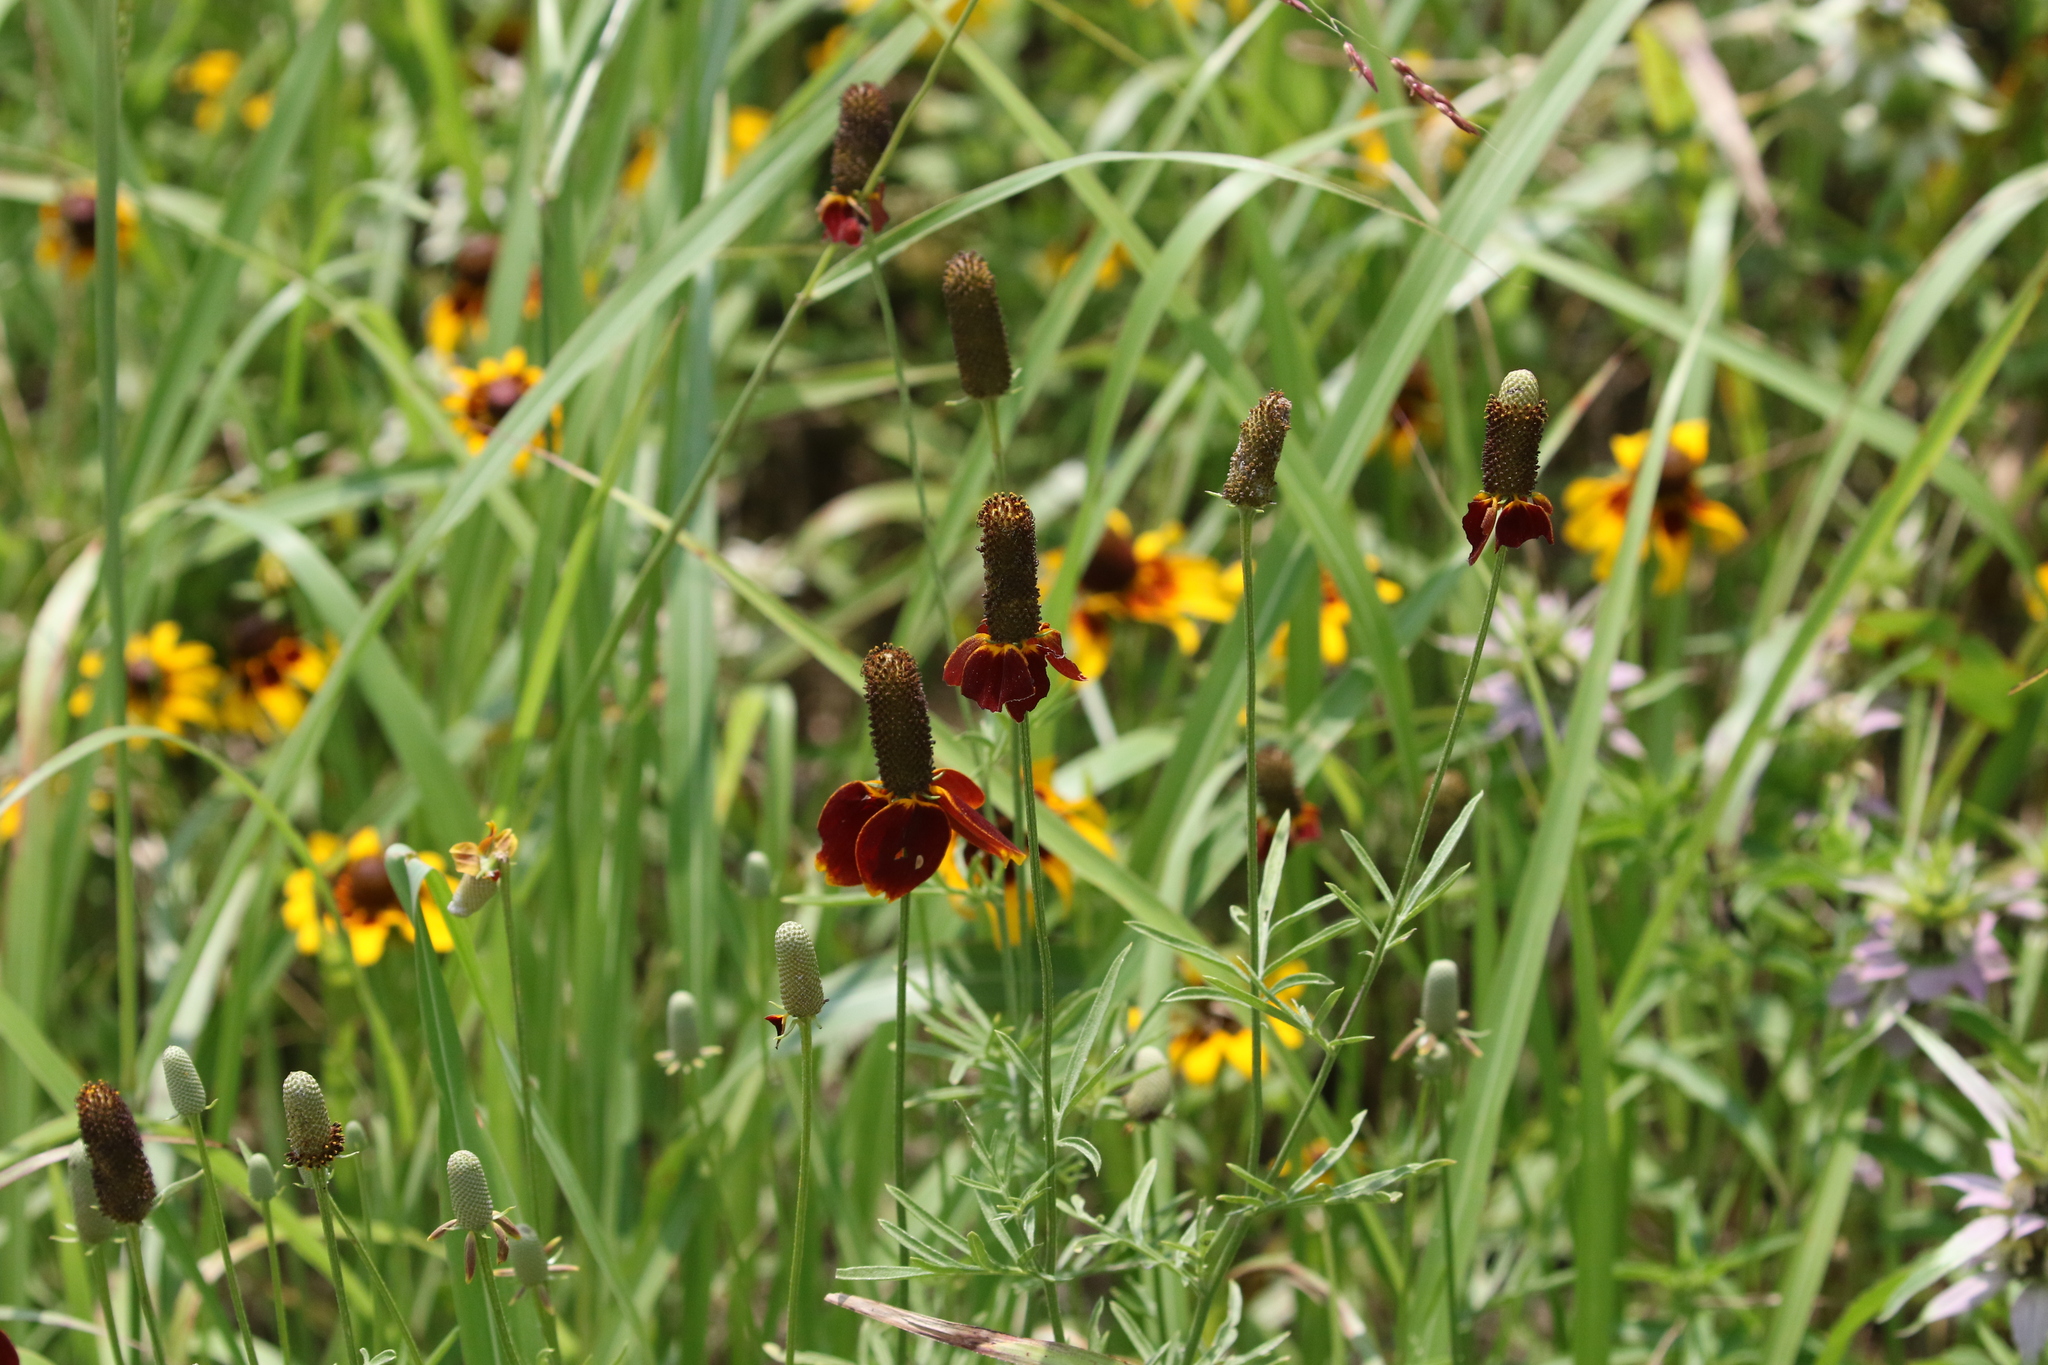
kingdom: Plantae
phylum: Tracheophyta
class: Magnoliopsida
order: Asterales
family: Asteraceae
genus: Ratibida
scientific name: Ratibida columnifera
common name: Prairie coneflower
